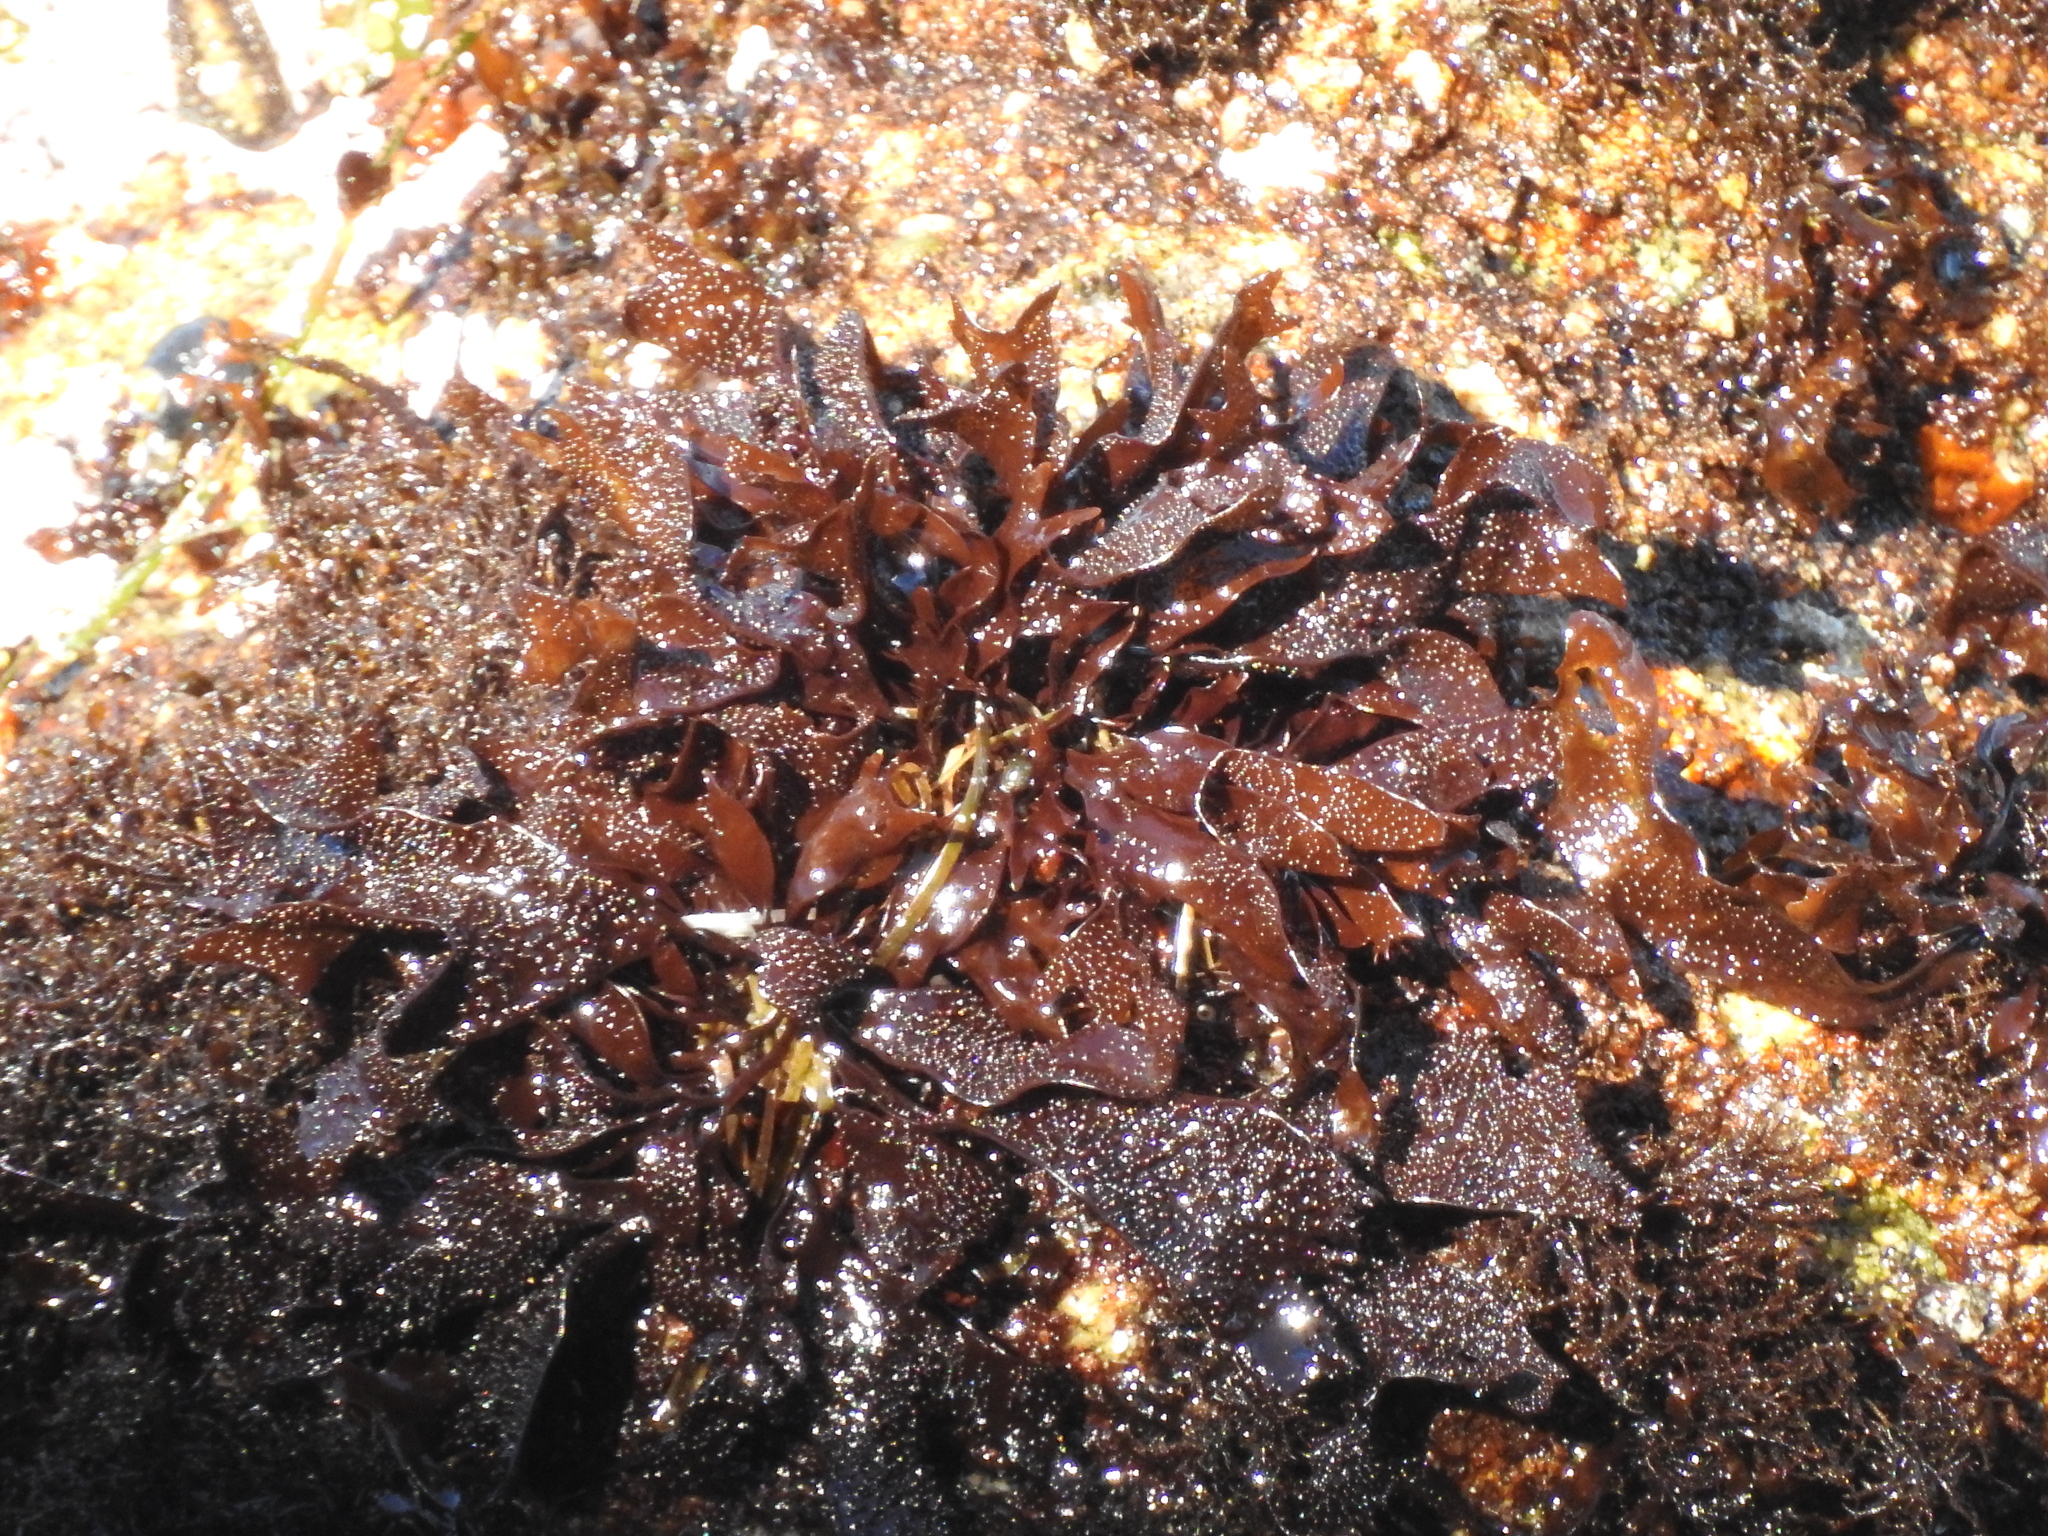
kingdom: Plantae
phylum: Rhodophyta
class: Florideophyceae
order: Gigartinales
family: Phyllophoraceae
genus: Mastocarpus
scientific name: Mastocarpus papillatus
